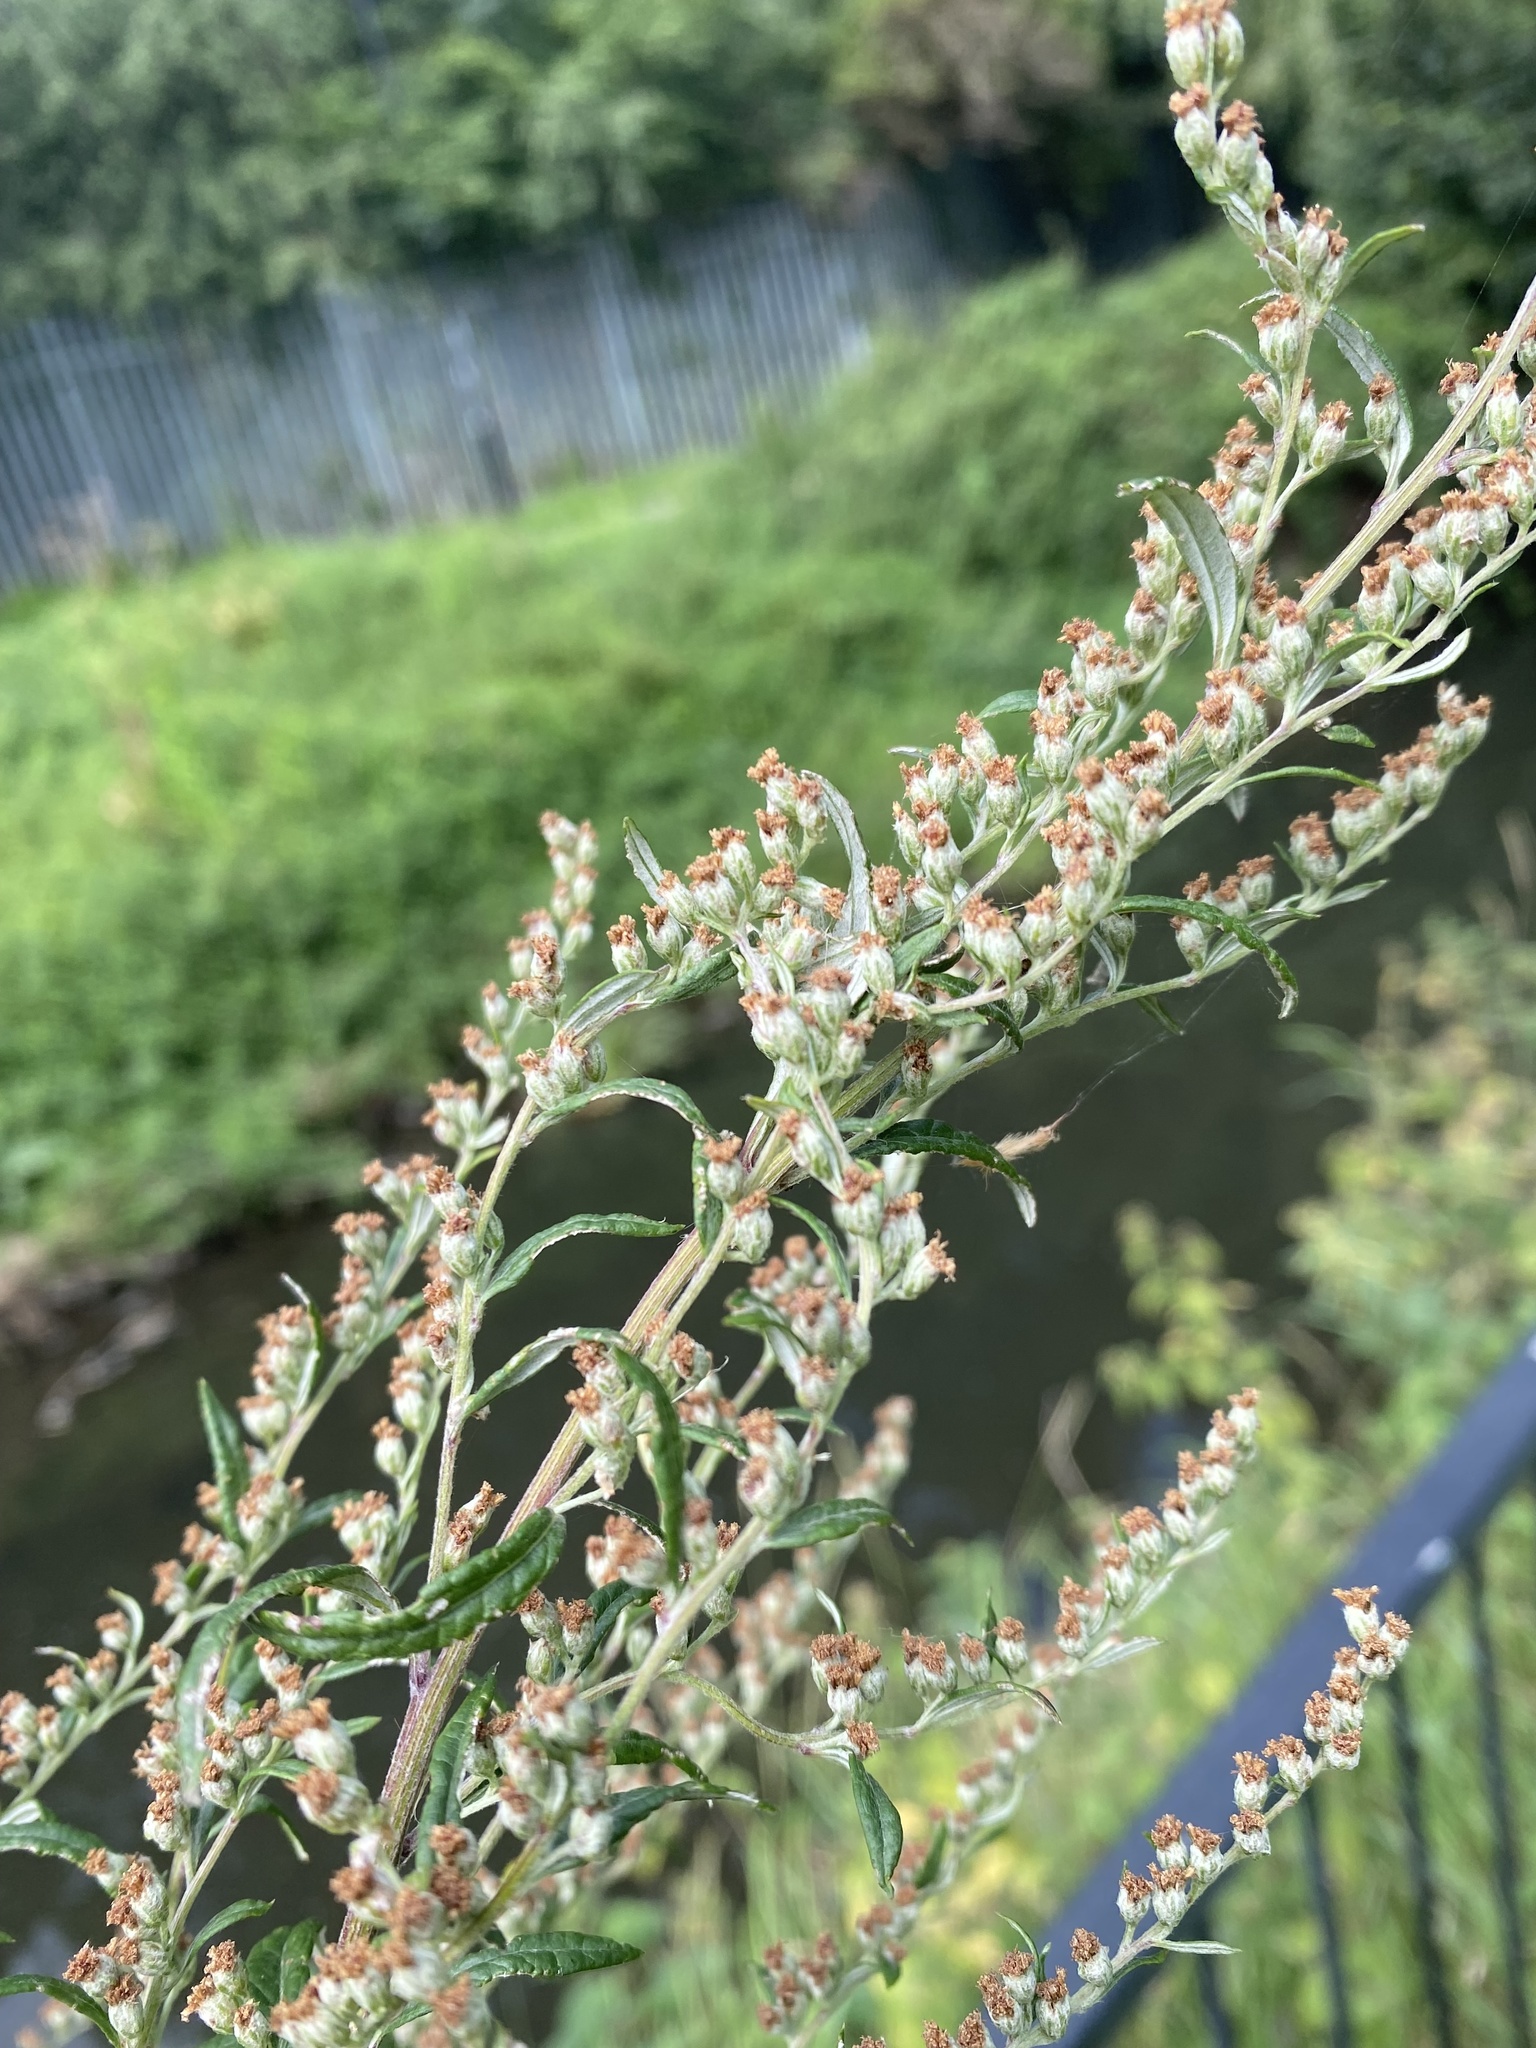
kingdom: Plantae
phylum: Tracheophyta
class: Magnoliopsida
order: Asterales
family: Asteraceae
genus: Artemisia
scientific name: Artemisia vulgaris
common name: Mugwort
